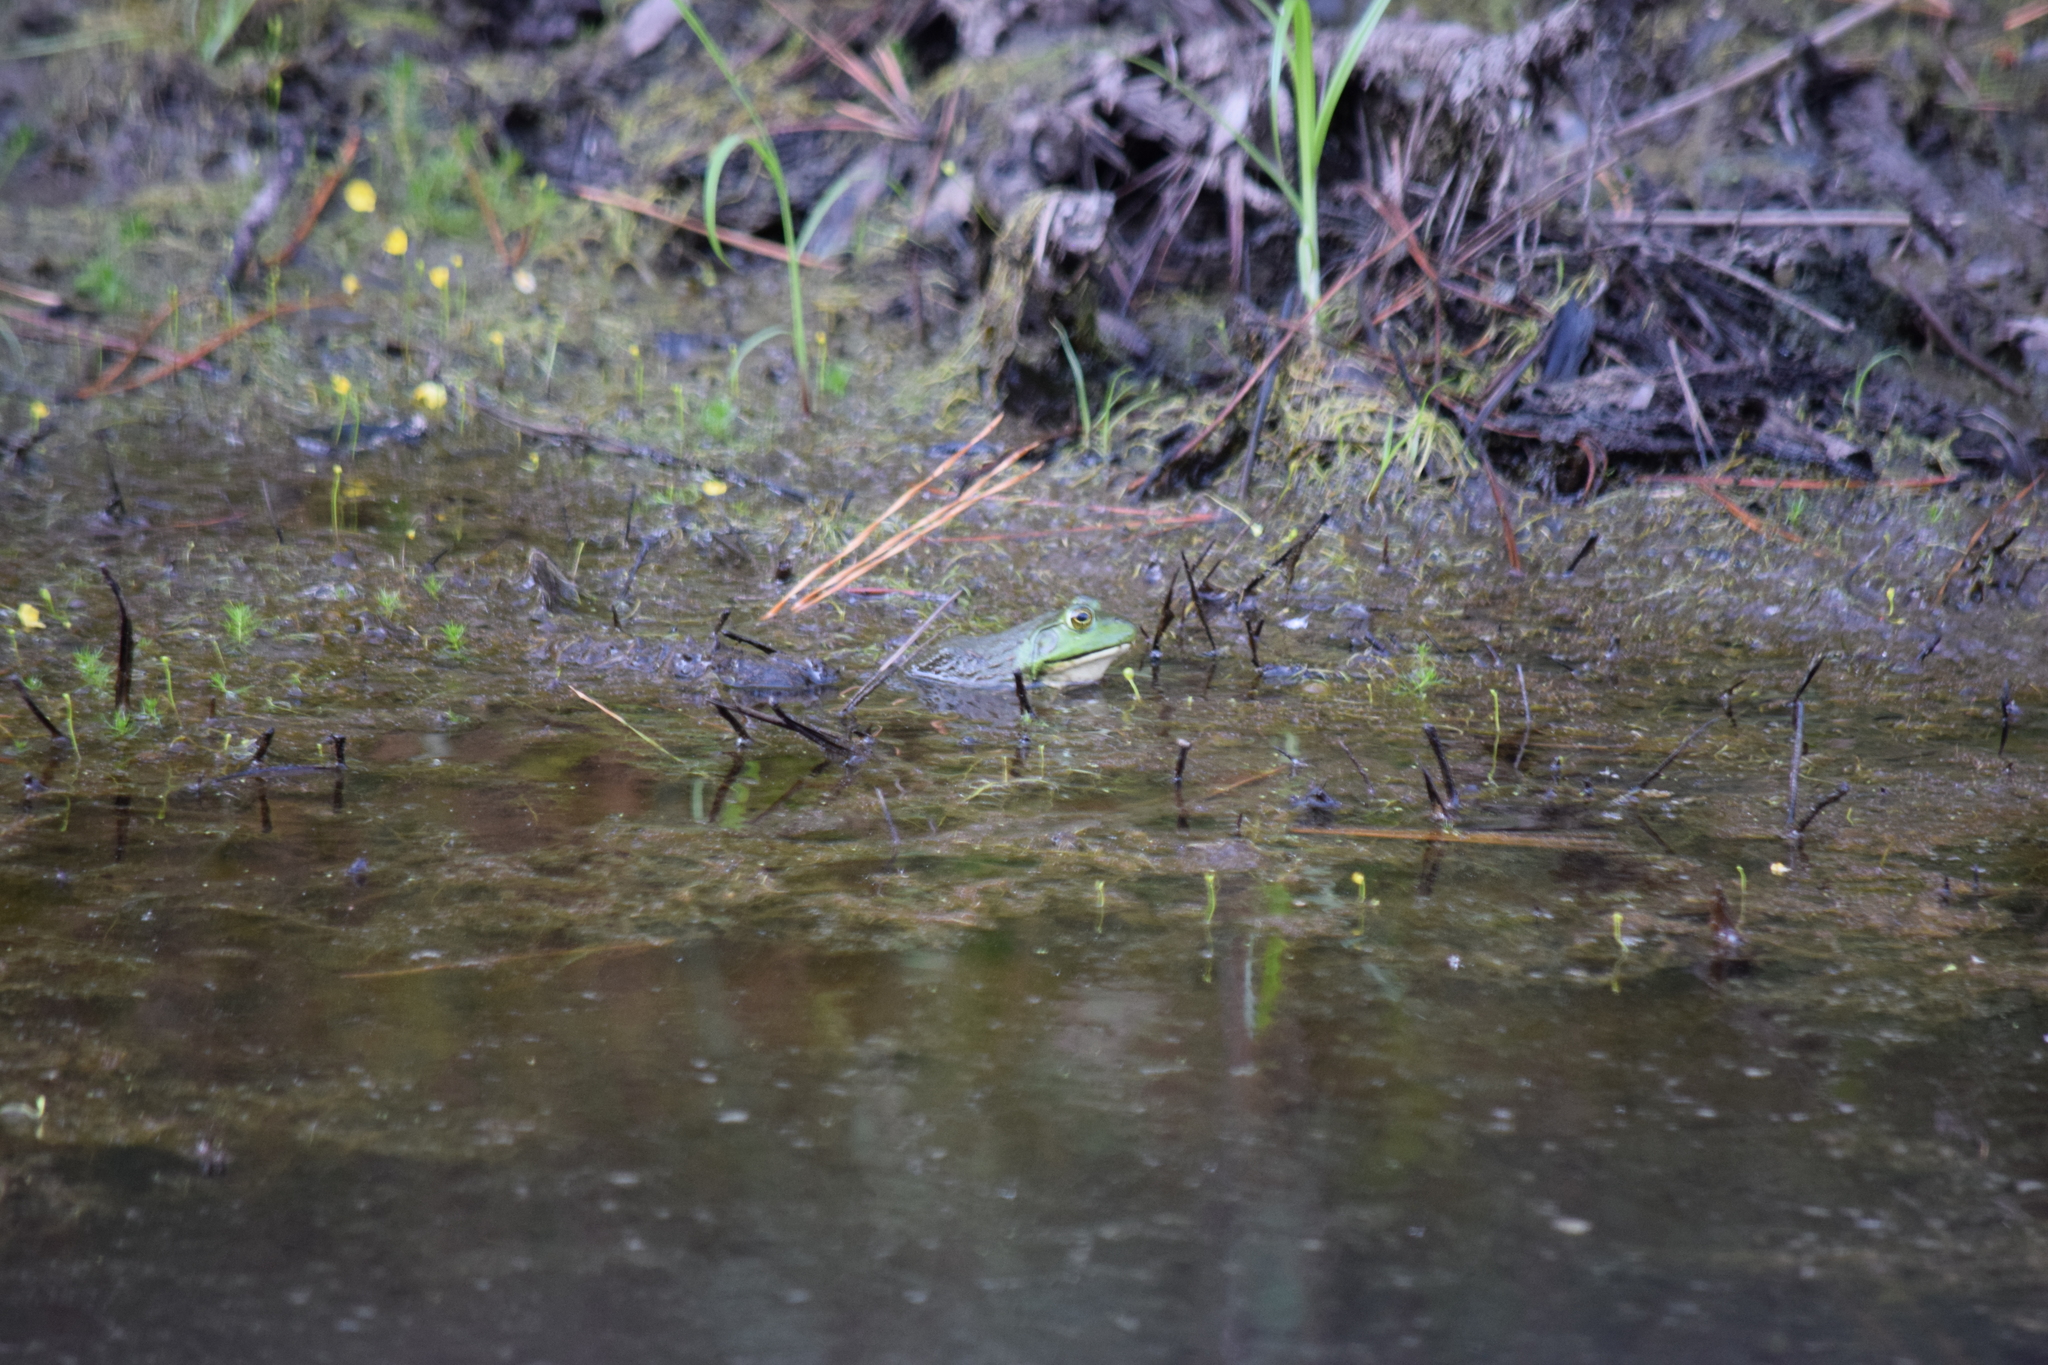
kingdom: Animalia
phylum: Chordata
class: Amphibia
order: Anura
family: Ranidae
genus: Lithobates
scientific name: Lithobates catesbeianus
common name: American bullfrog
